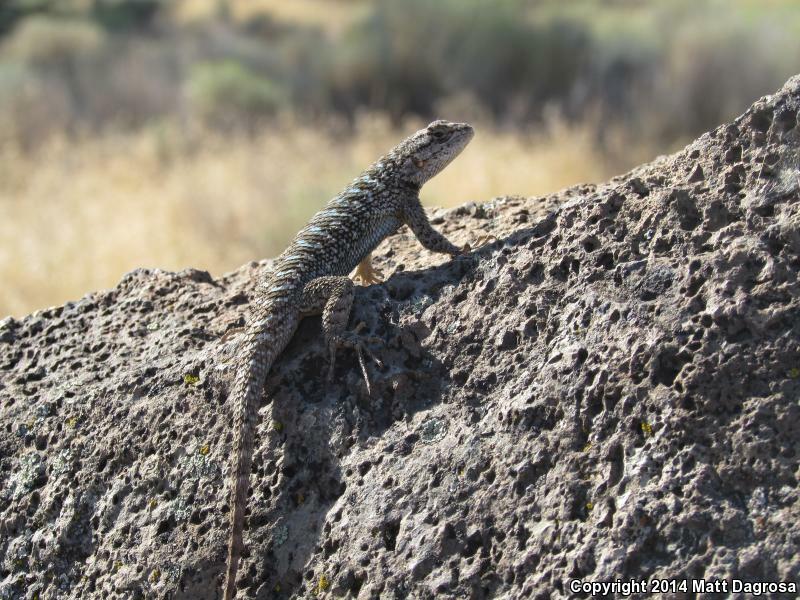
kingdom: Animalia
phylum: Chordata
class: Squamata
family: Phrynosomatidae
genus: Sceloporus
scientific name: Sceloporus occidentalis
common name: Western fence lizard
